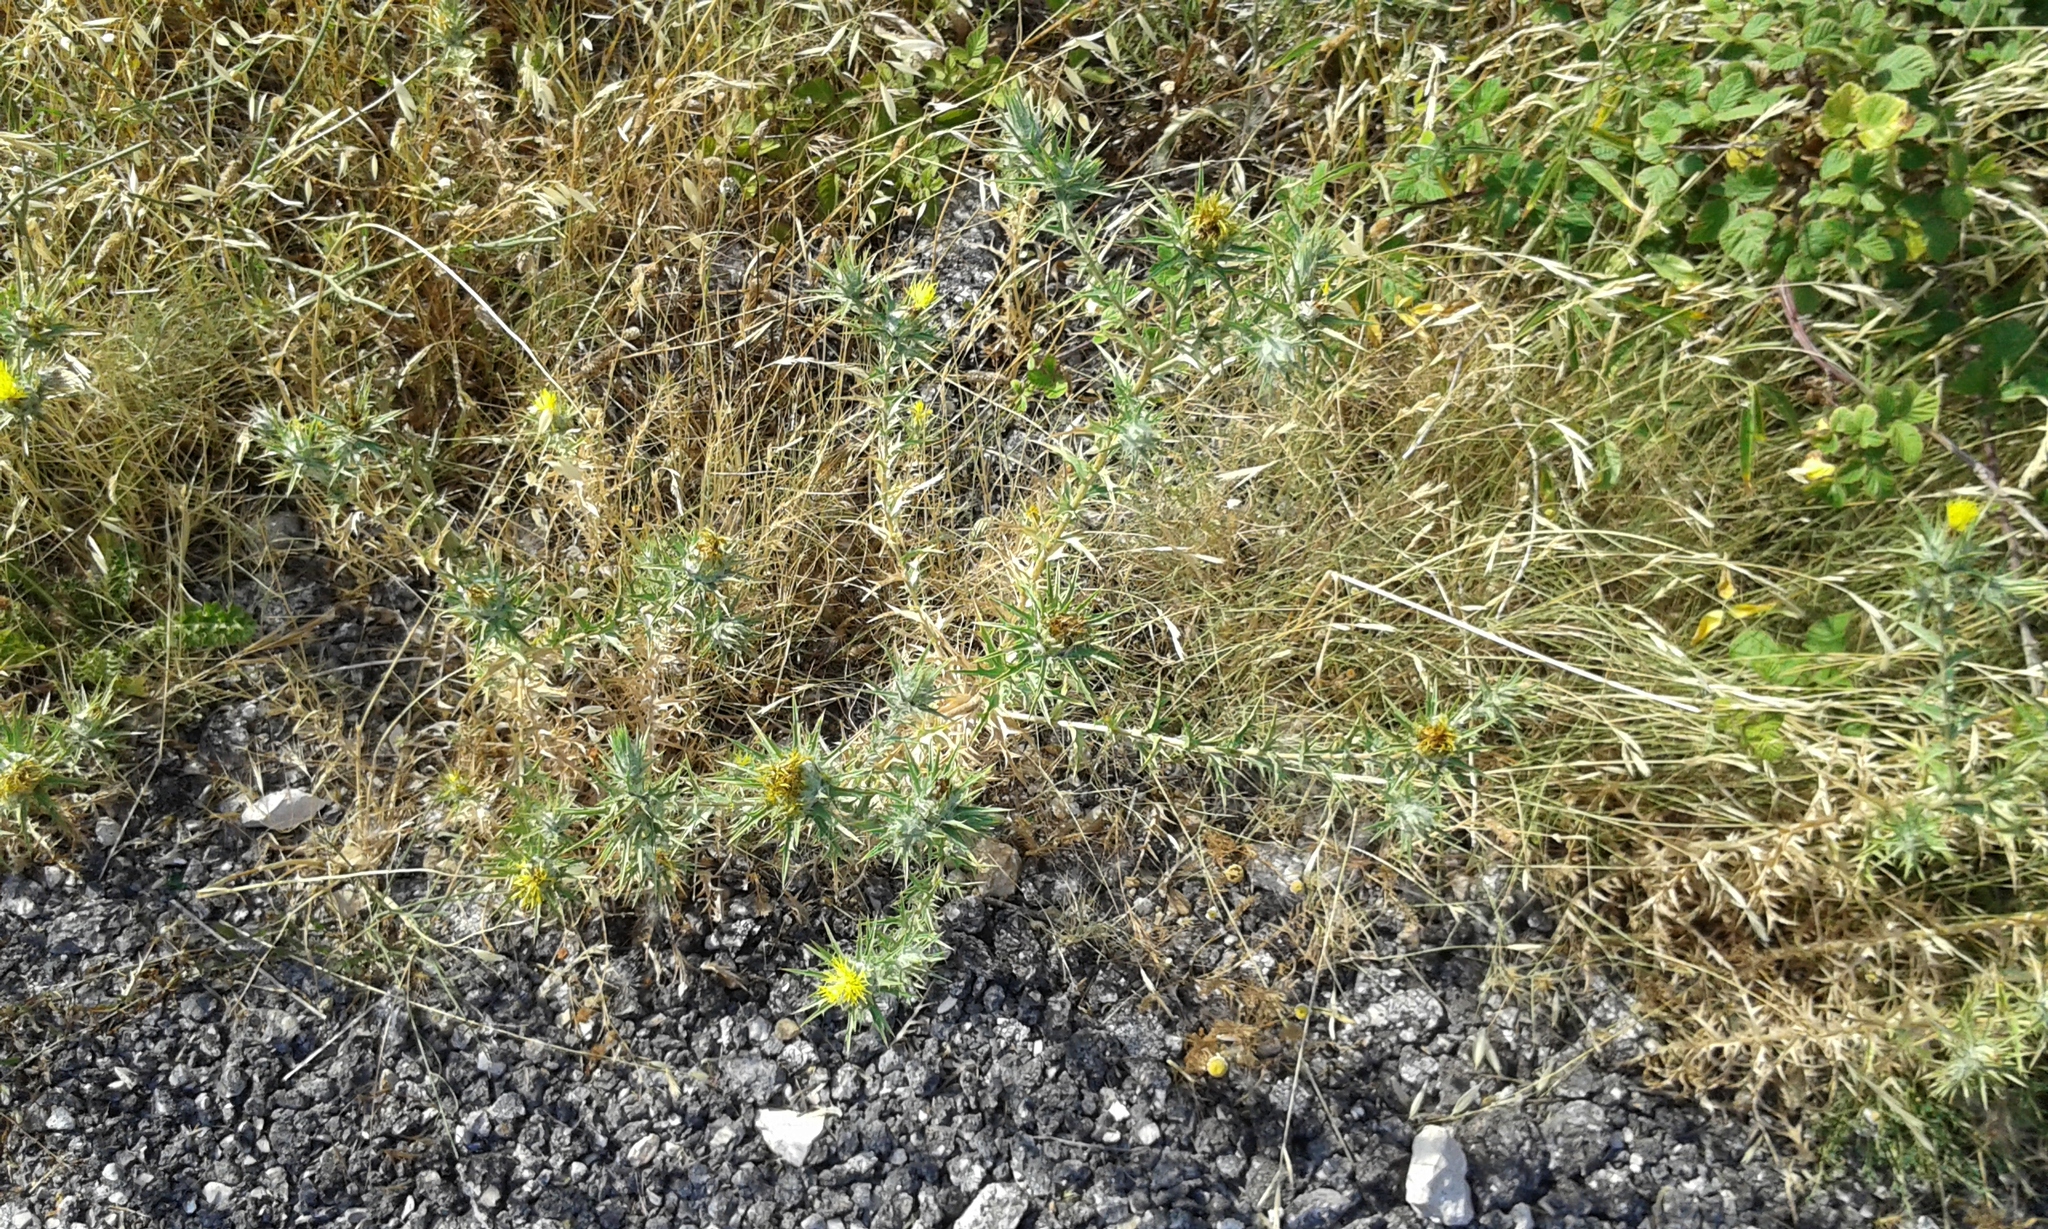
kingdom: Plantae
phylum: Tracheophyta
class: Magnoliopsida
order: Asterales
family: Asteraceae
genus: Carthamus
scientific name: Carthamus lanatus
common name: Downy safflower
